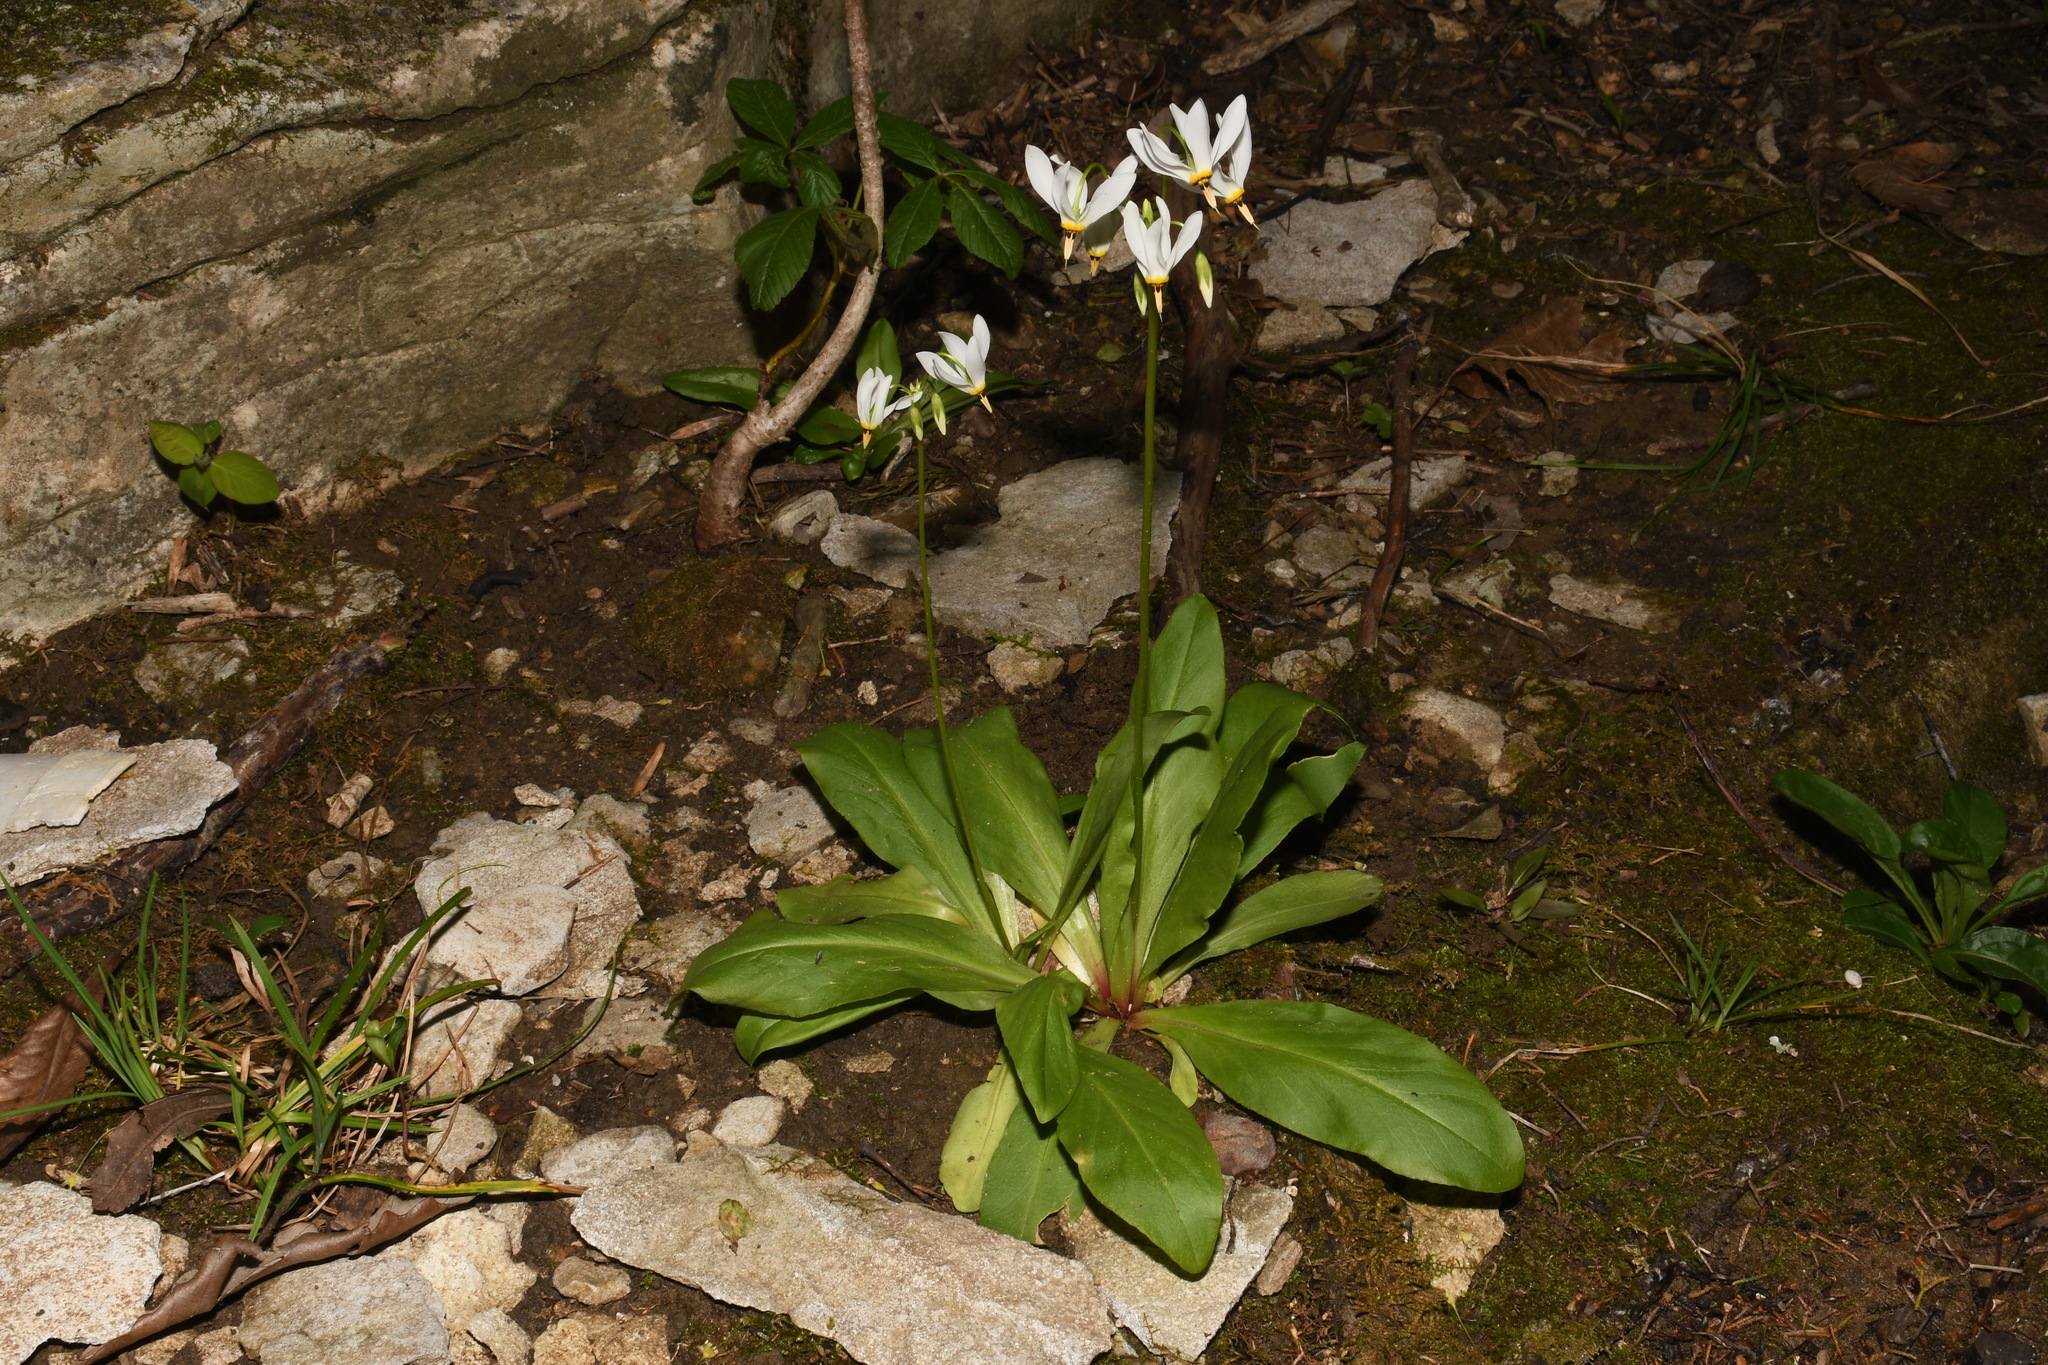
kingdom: Plantae
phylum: Tracheophyta
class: Magnoliopsida
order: Ericales
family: Primulaceae
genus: Dodecatheon
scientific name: Dodecatheon meadia
